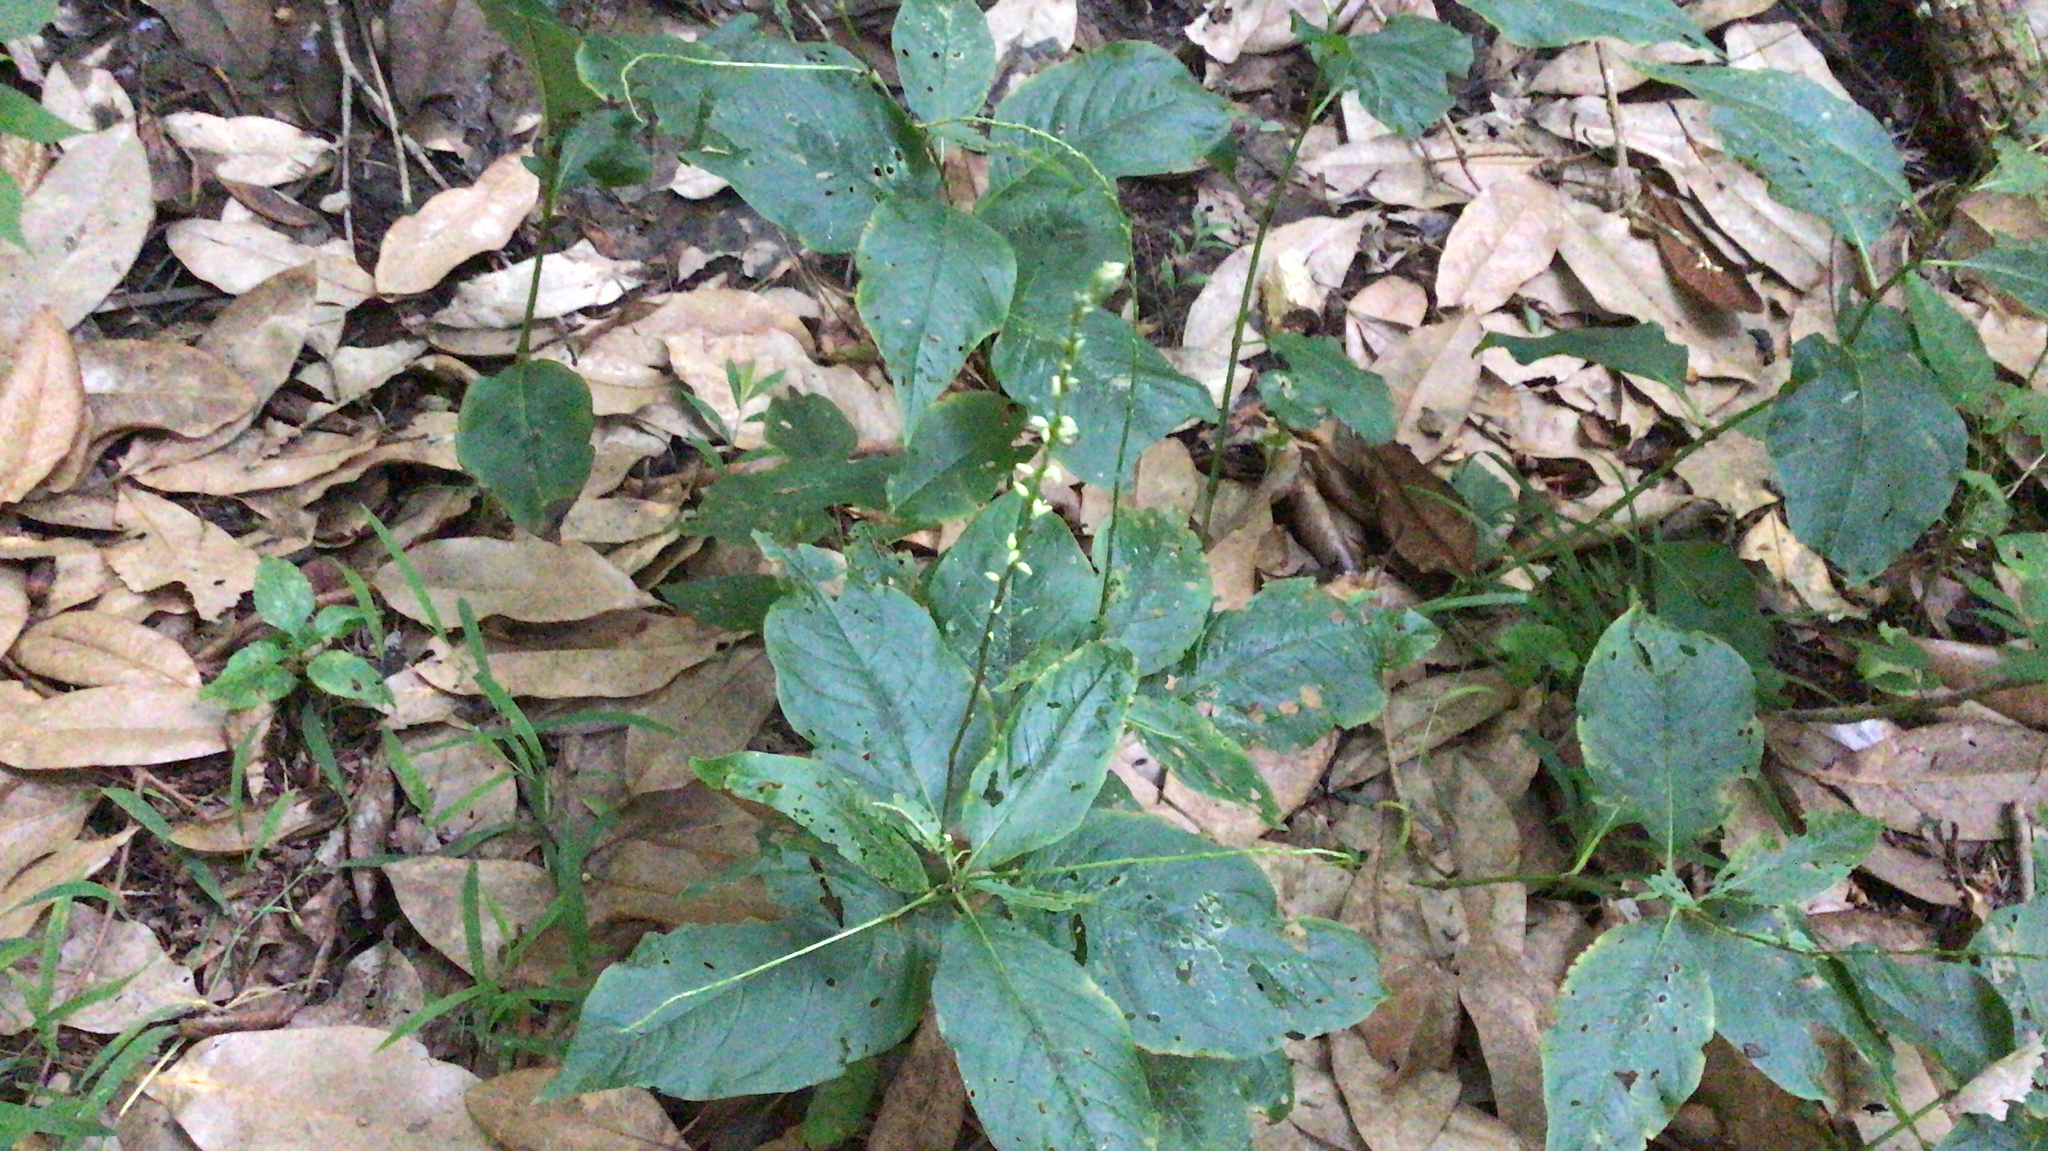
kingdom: Plantae
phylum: Tracheophyta
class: Magnoliopsida
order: Caryophyllales
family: Polygonaceae
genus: Persicaria
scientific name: Persicaria virginiana
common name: Jumpseed
